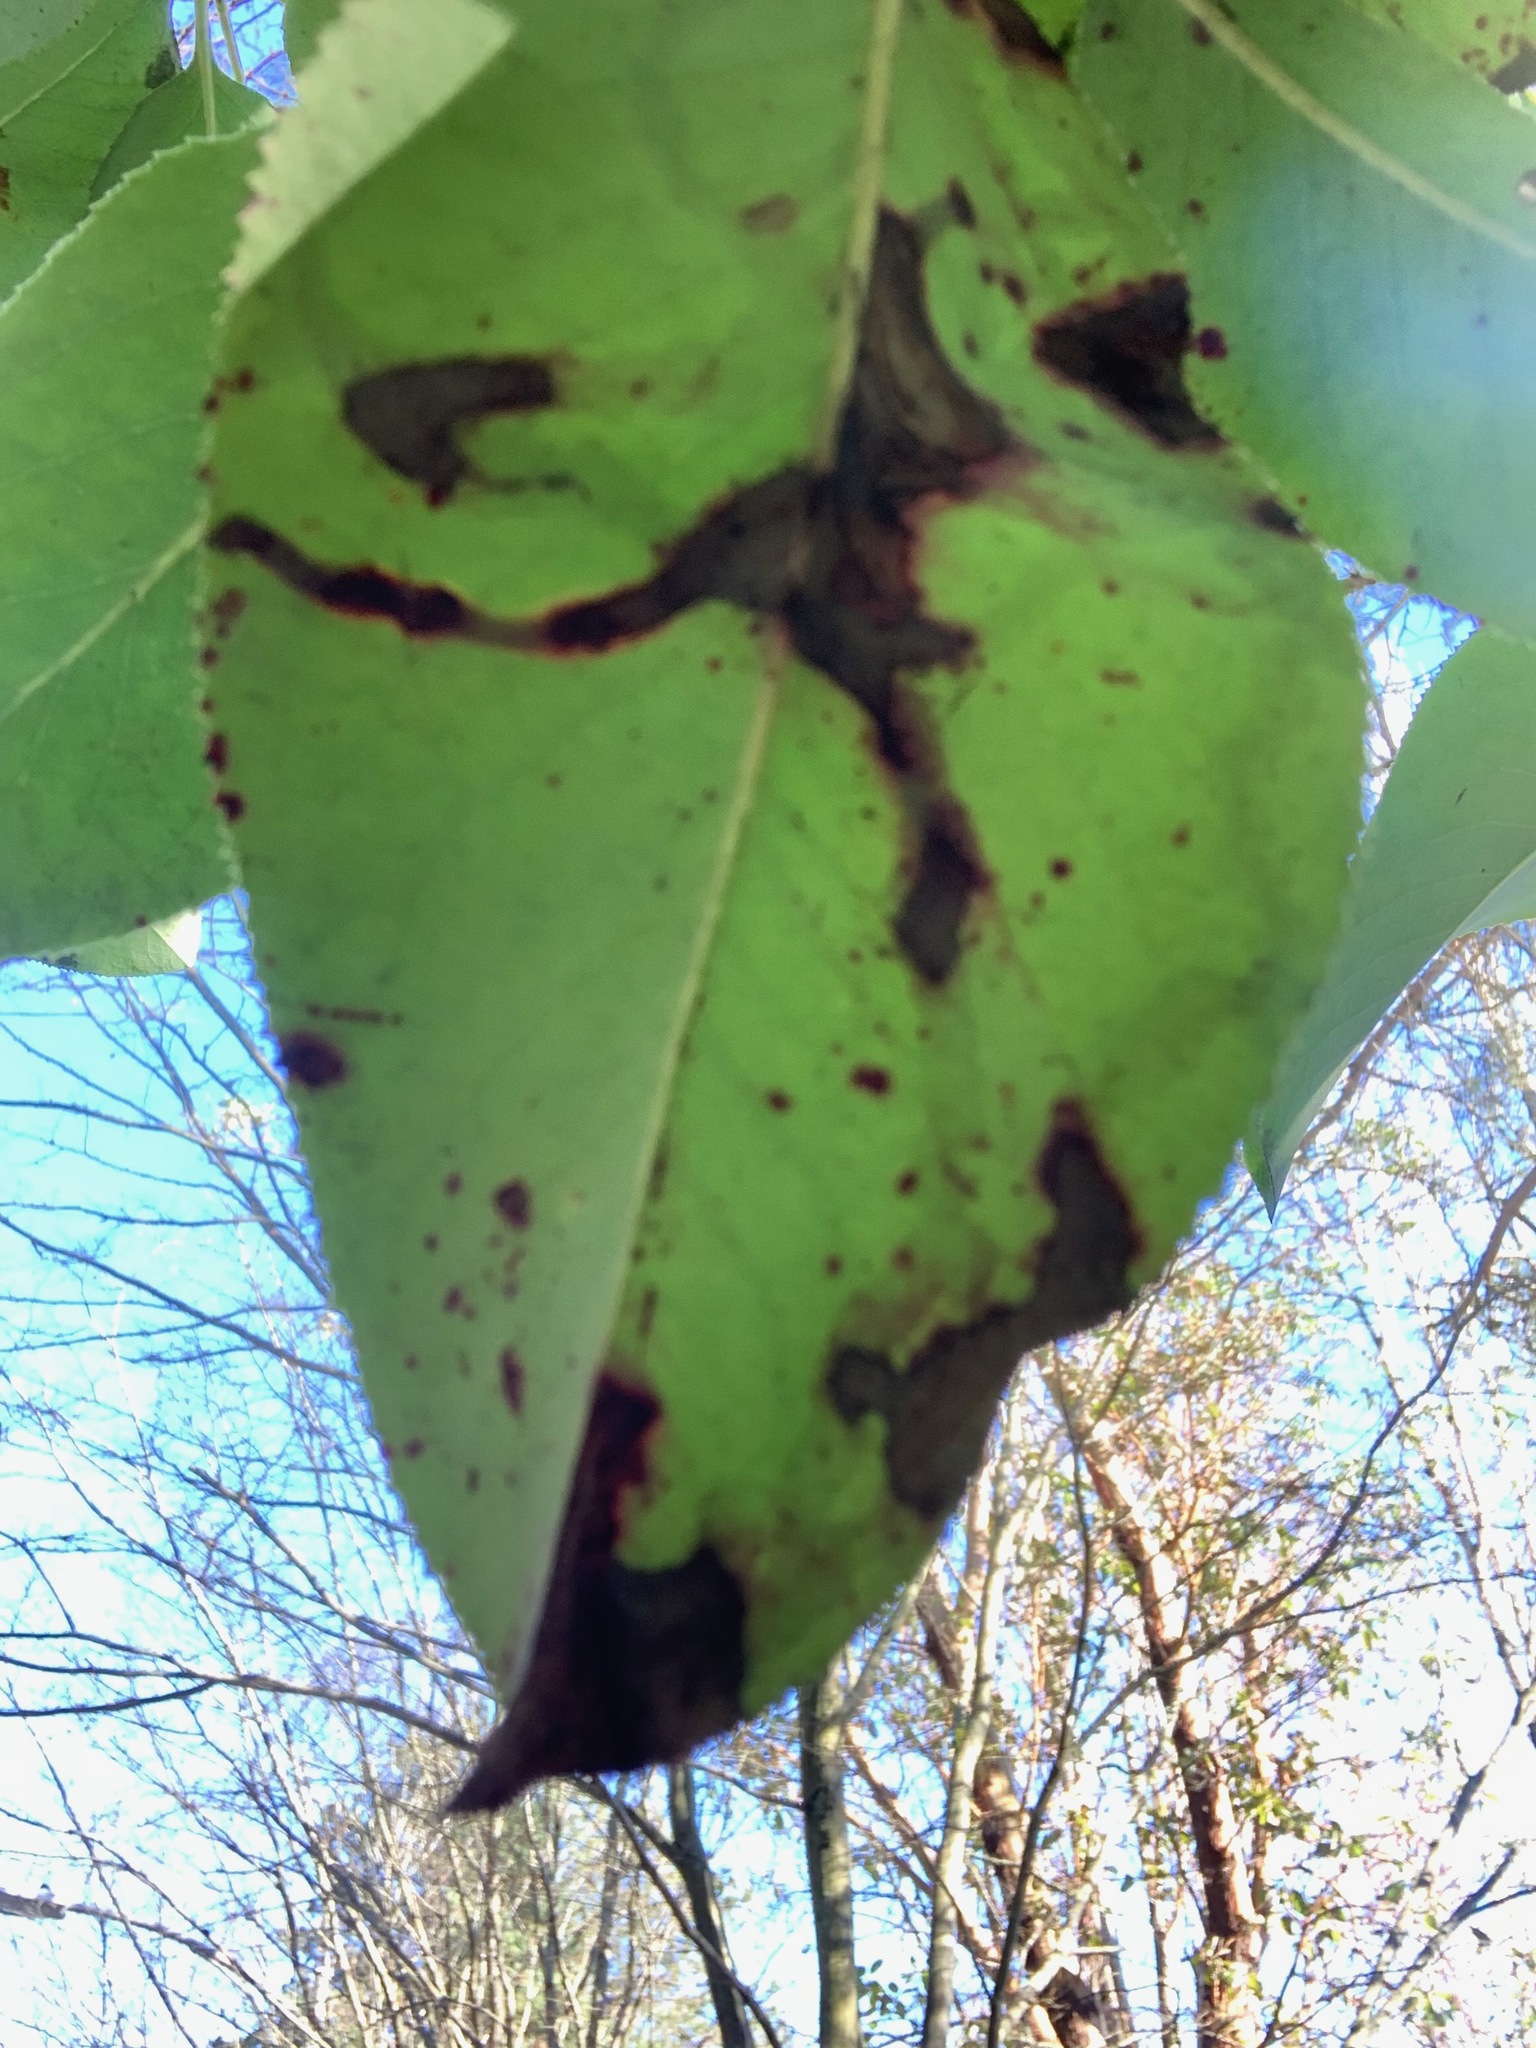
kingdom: Animalia
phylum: Arthropoda
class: Insecta
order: Lepidoptera
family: Gracillariidae
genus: Marmara
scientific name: Marmara arbutiella
